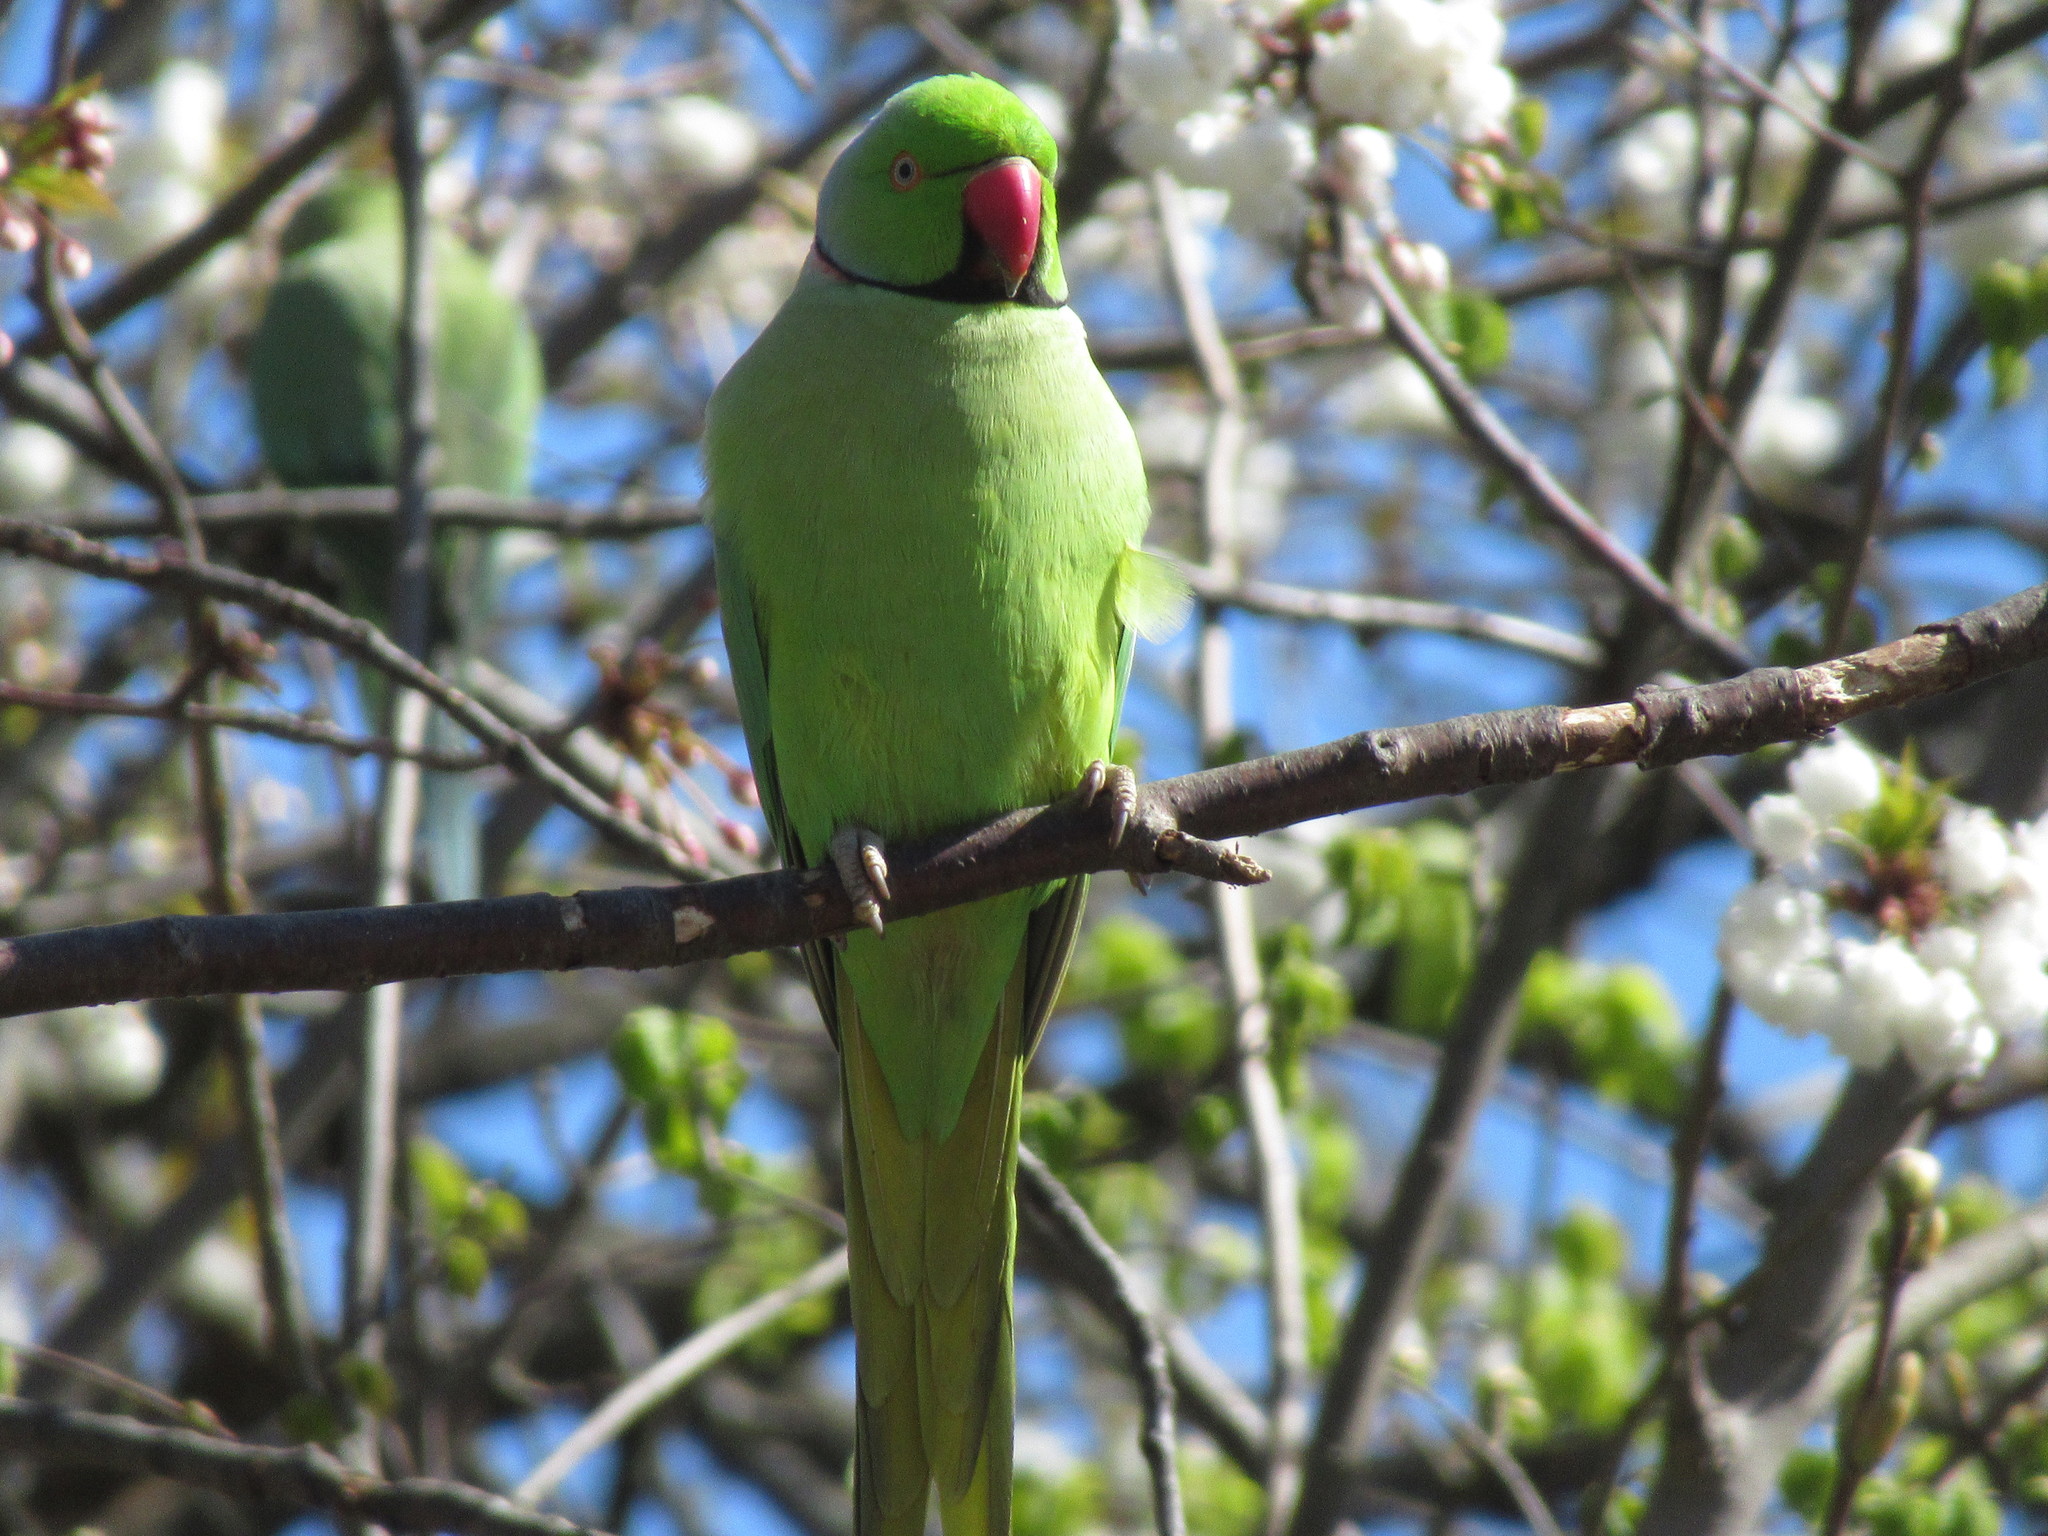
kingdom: Animalia
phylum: Chordata
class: Aves
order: Psittaciformes
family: Psittacidae
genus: Psittacula
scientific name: Psittacula krameri
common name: Rose-ringed parakeet
